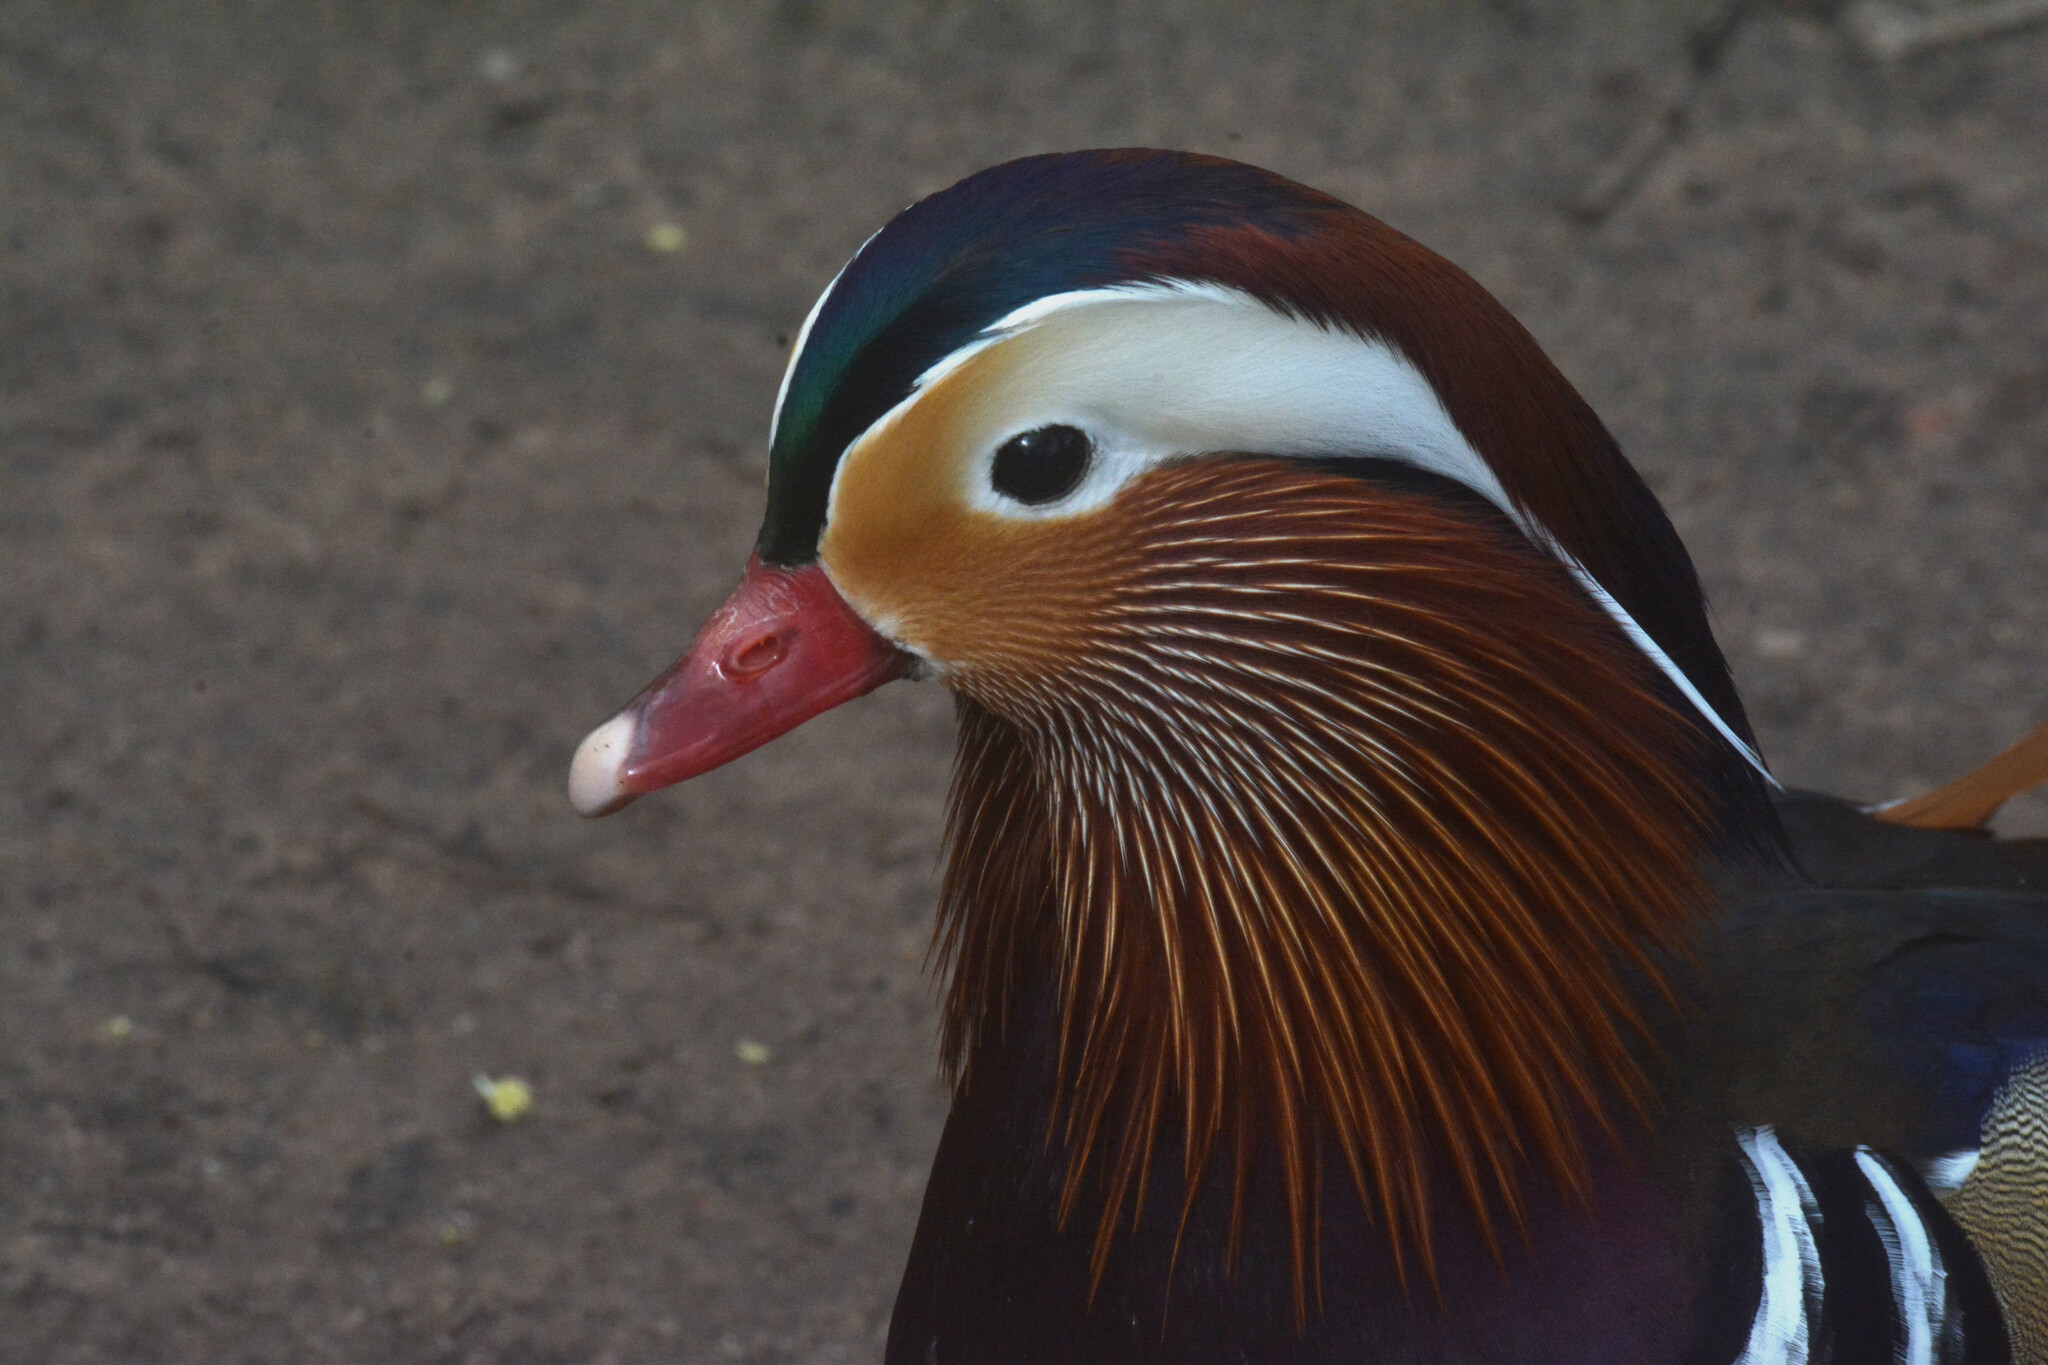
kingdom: Animalia
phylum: Chordata
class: Aves
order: Anseriformes
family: Anatidae
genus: Aix
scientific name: Aix galericulata
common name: Mandarin duck
